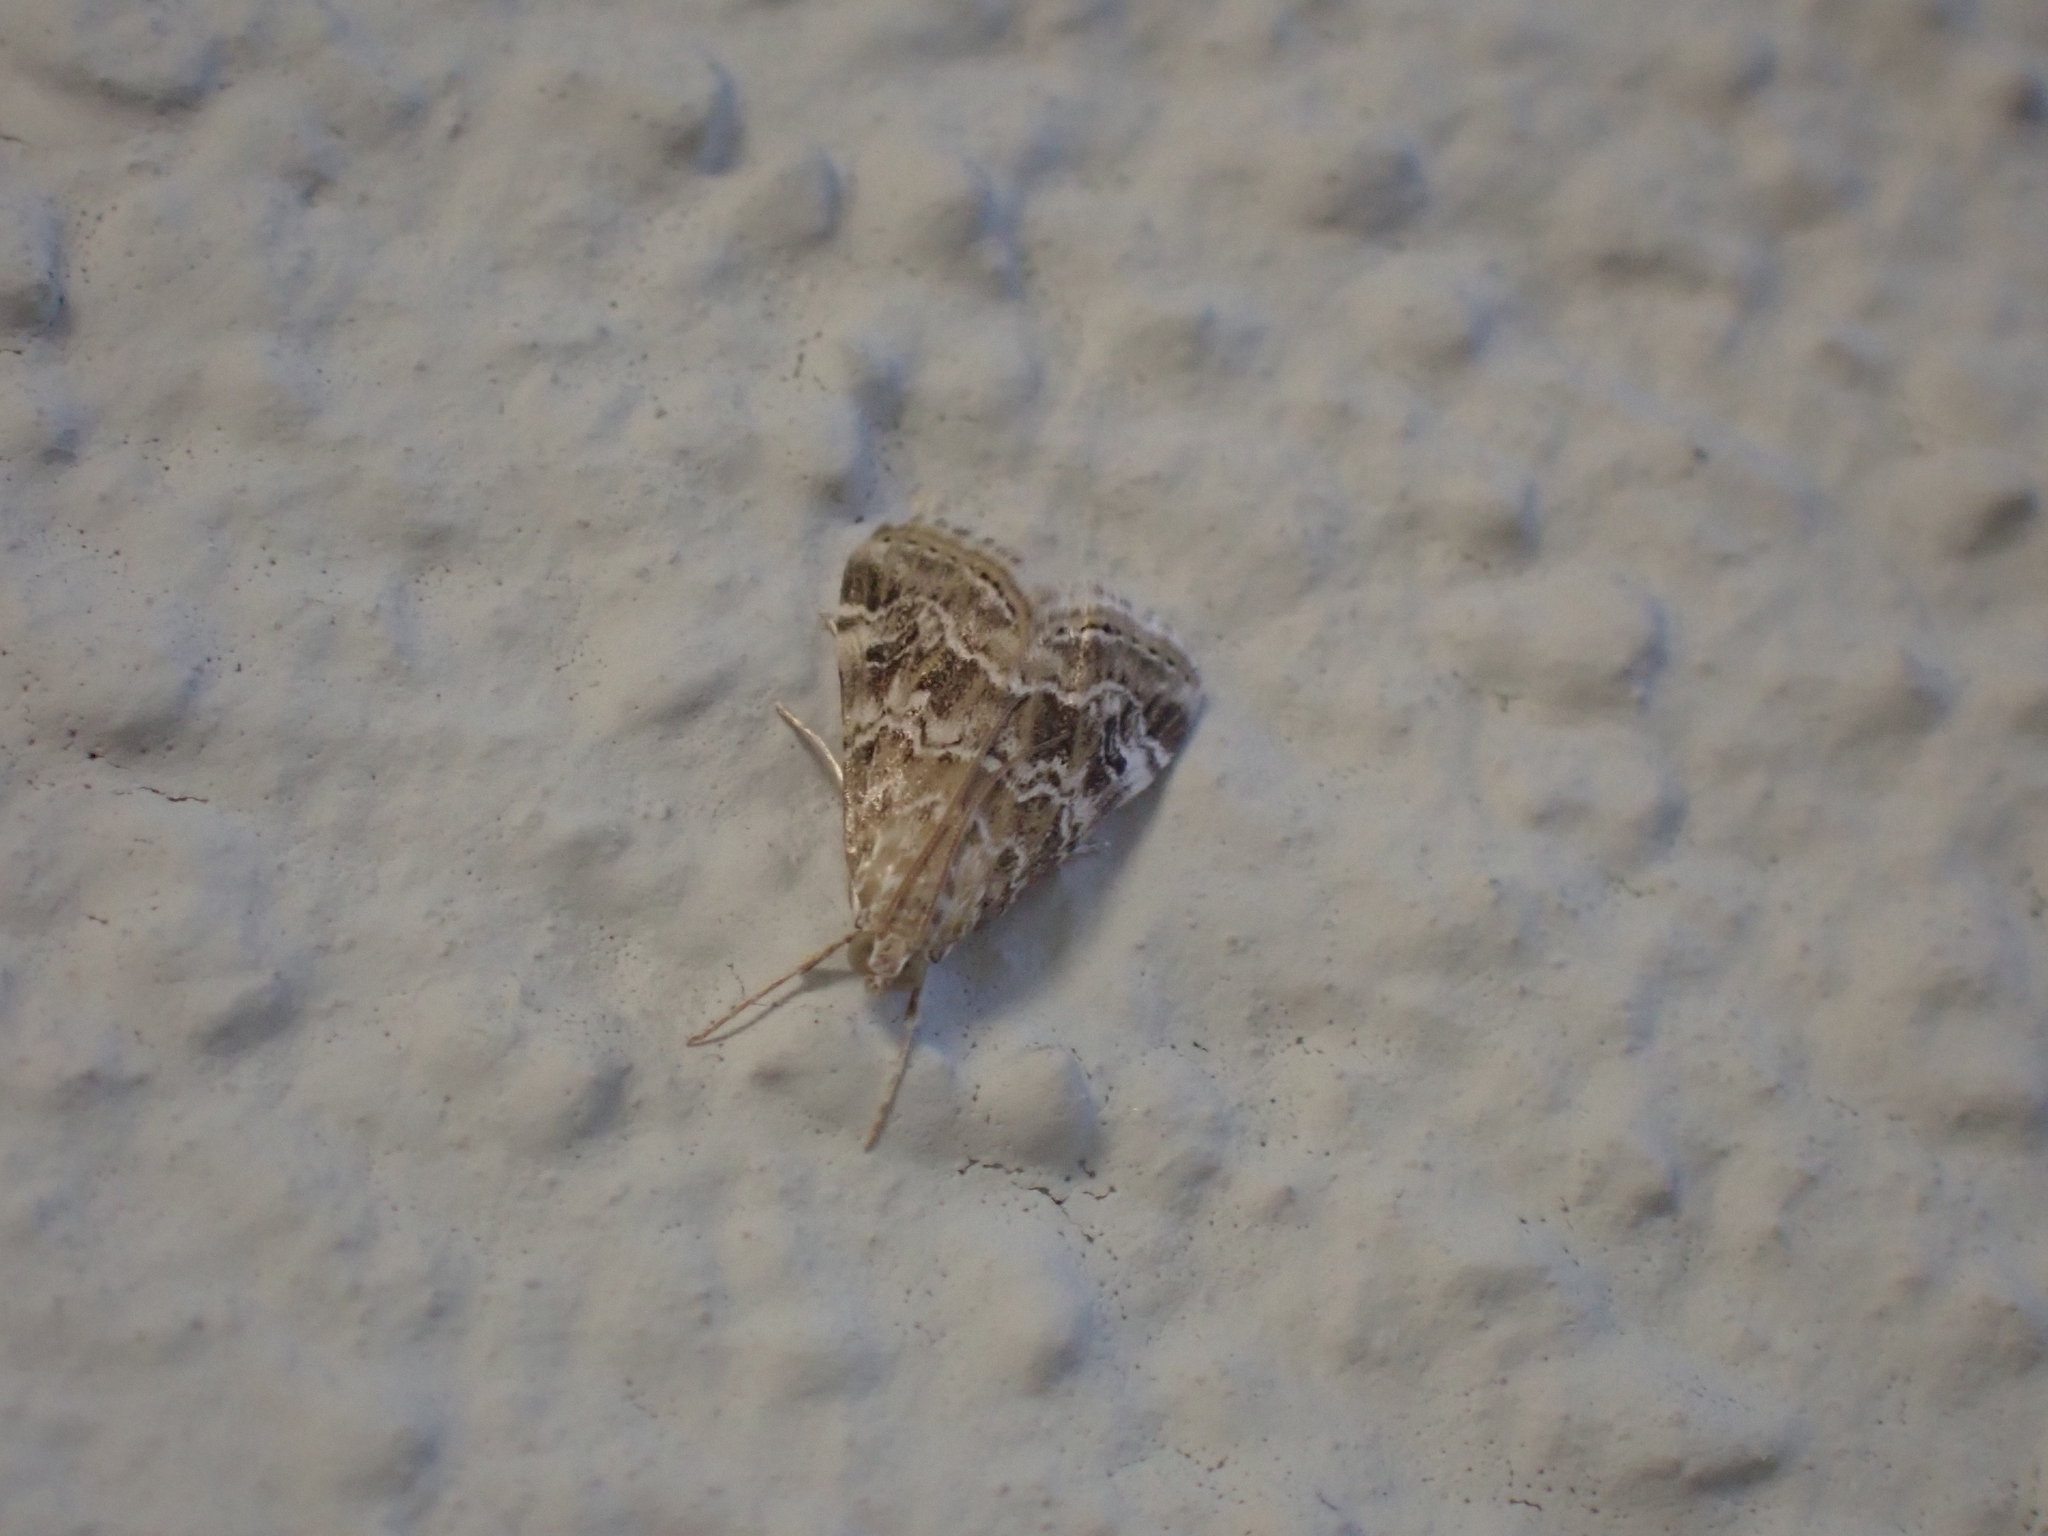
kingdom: Animalia
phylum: Arthropoda
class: Insecta
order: Lepidoptera
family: Crambidae
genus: Hellula
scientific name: Hellula undalis
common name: Cabbage webworm
